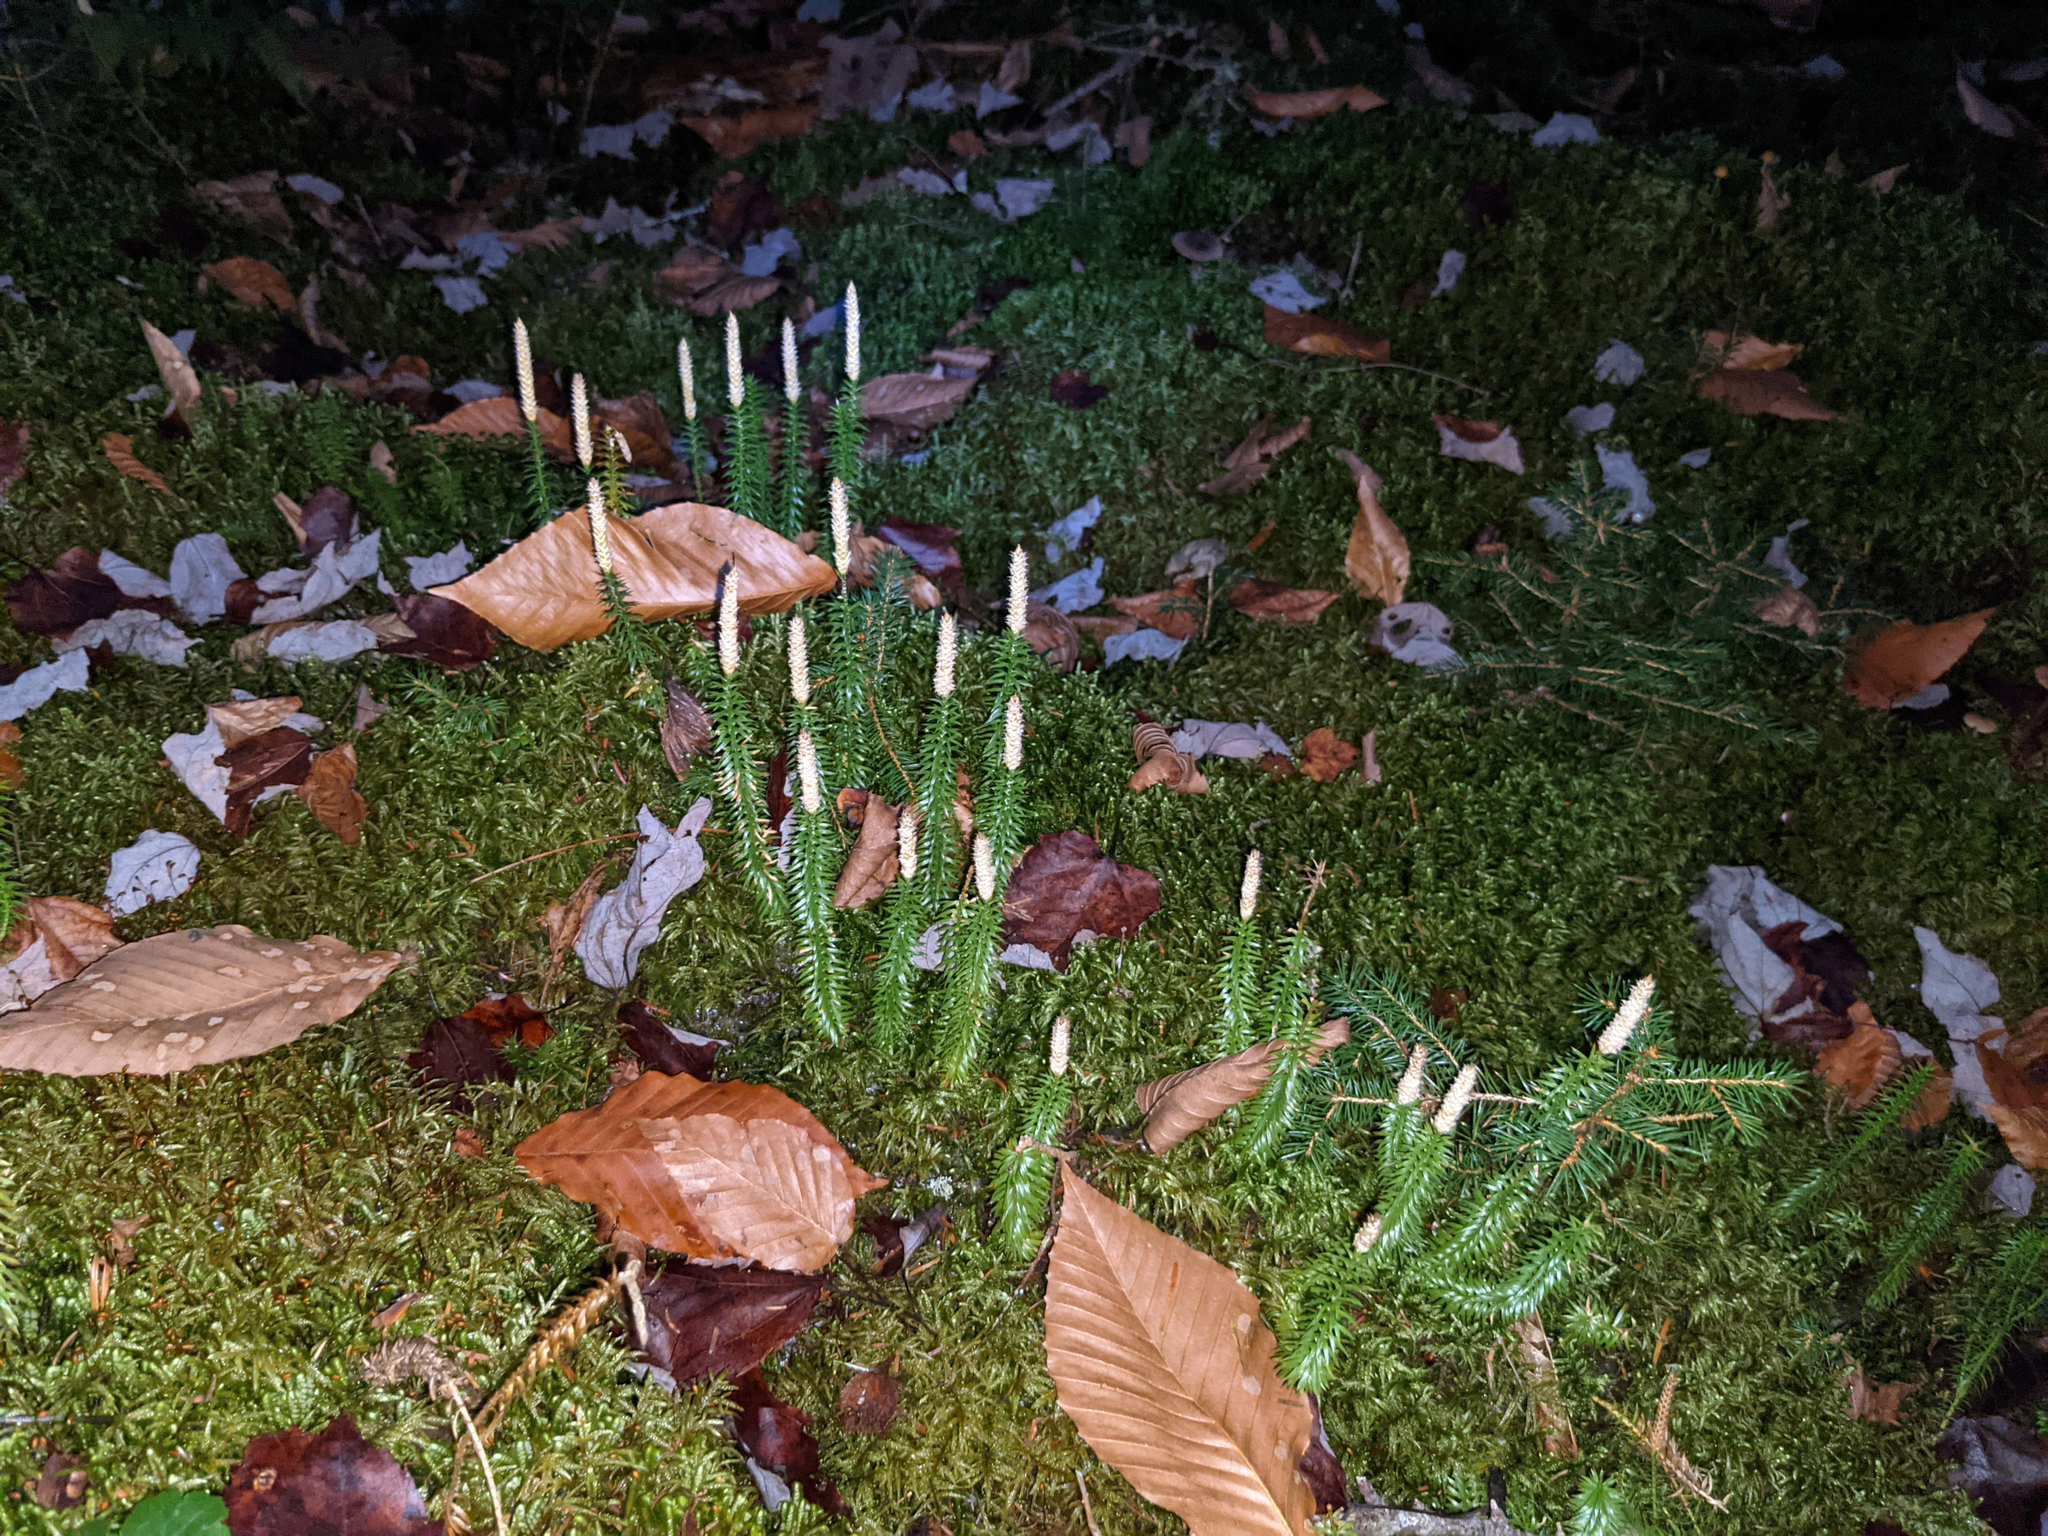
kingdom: Plantae
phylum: Tracheophyta
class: Lycopodiopsida
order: Lycopodiales
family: Lycopodiaceae
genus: Spinulum
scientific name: Spinulum annotinum
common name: Interrupted club-moss
